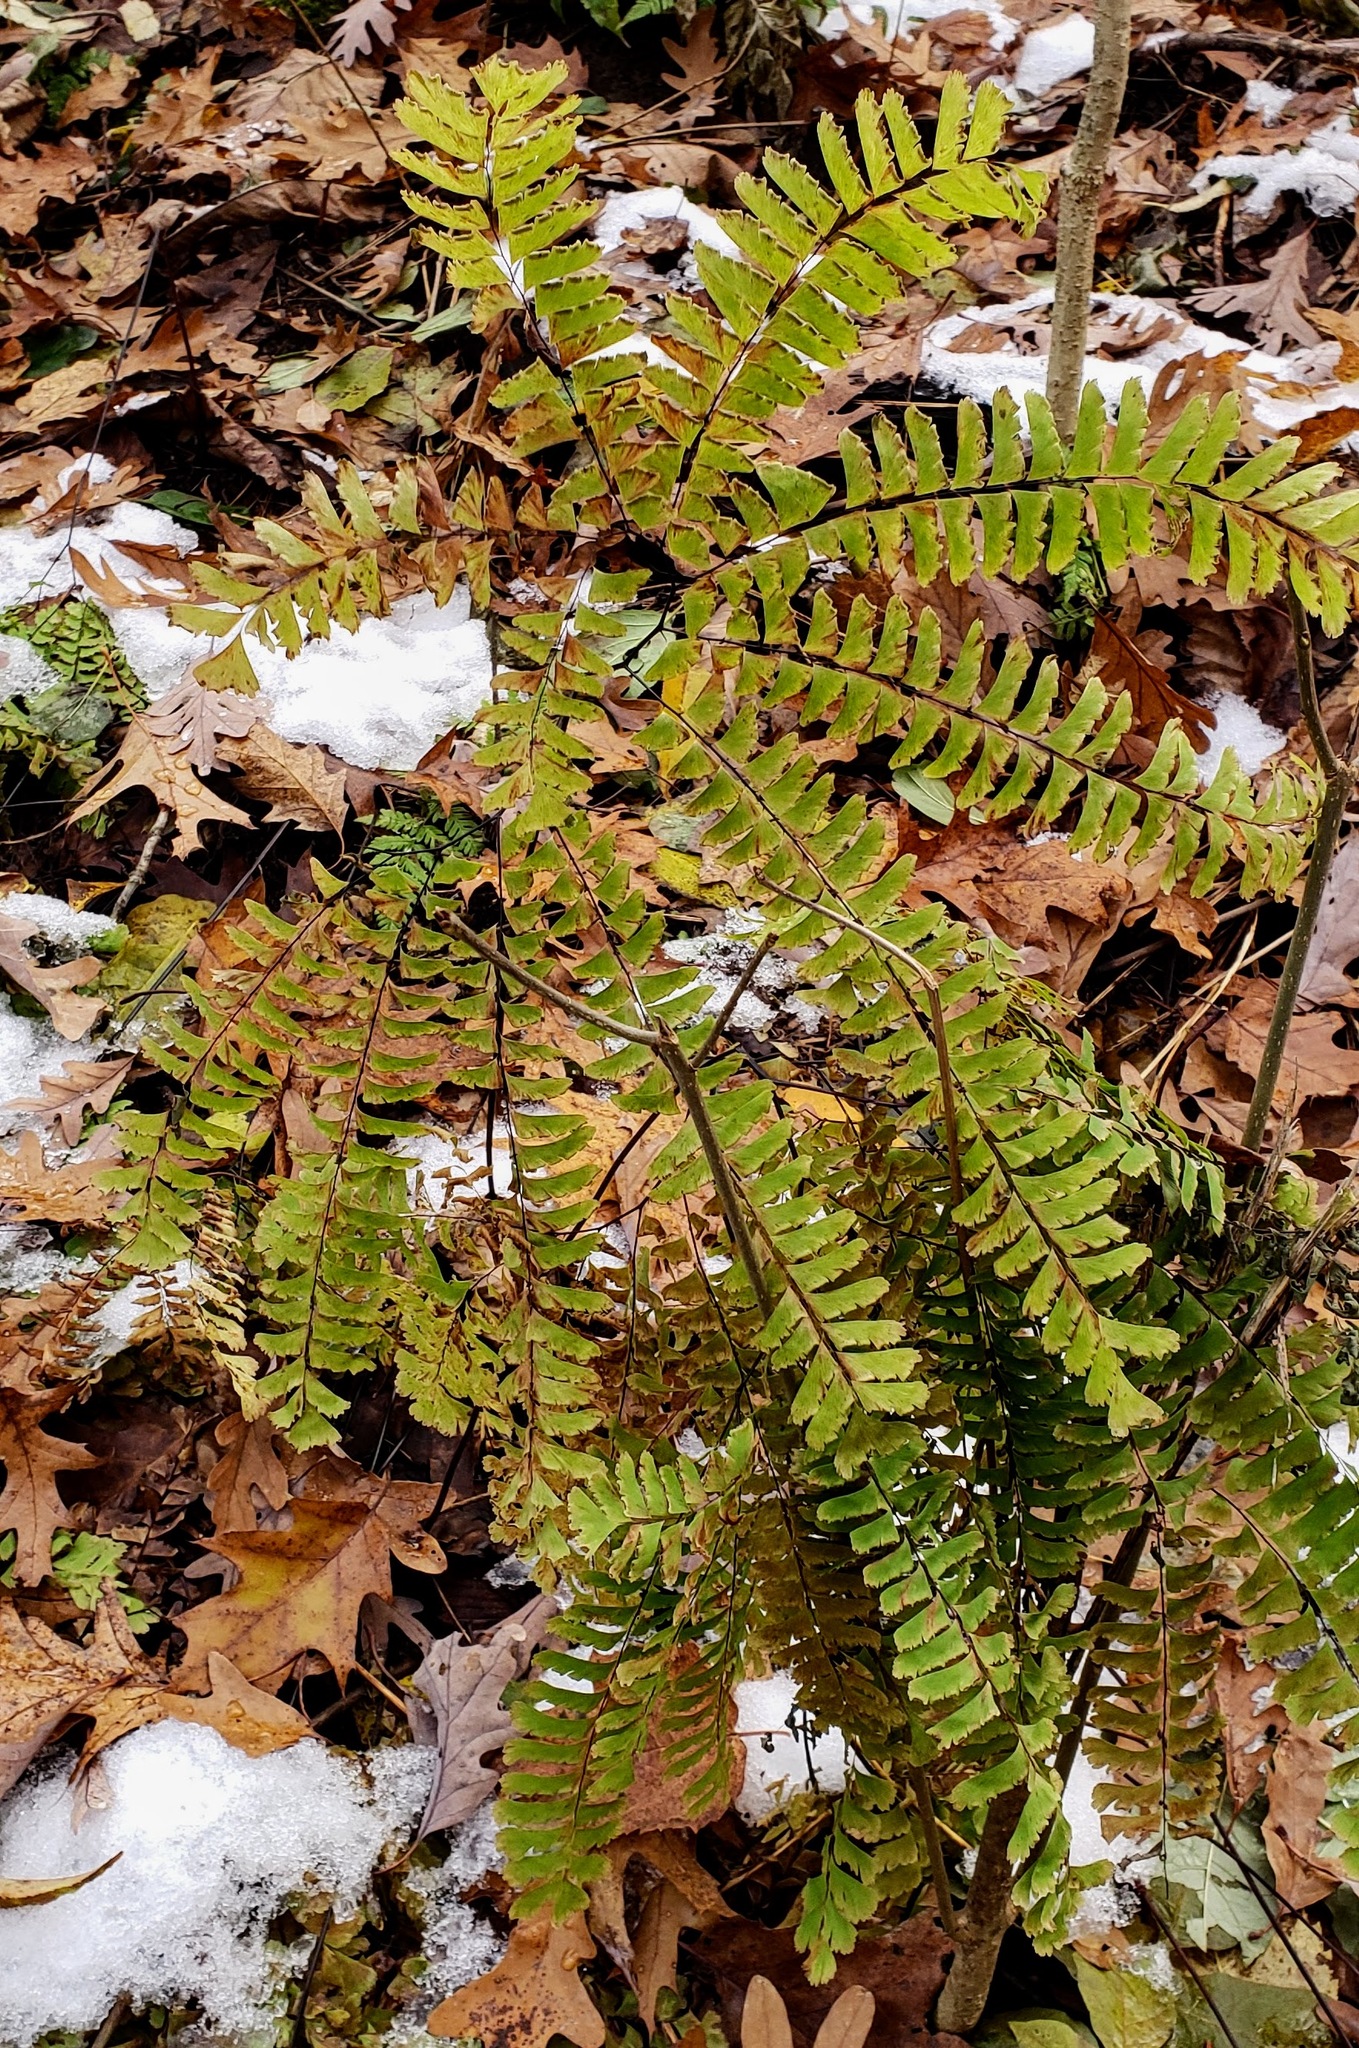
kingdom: Plantae
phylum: Tracheophyta
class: Polypodiopsida
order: Polypodiales
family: Pteridaceae
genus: Adiantum
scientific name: Adiantum pedatum
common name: Five-finger fern
